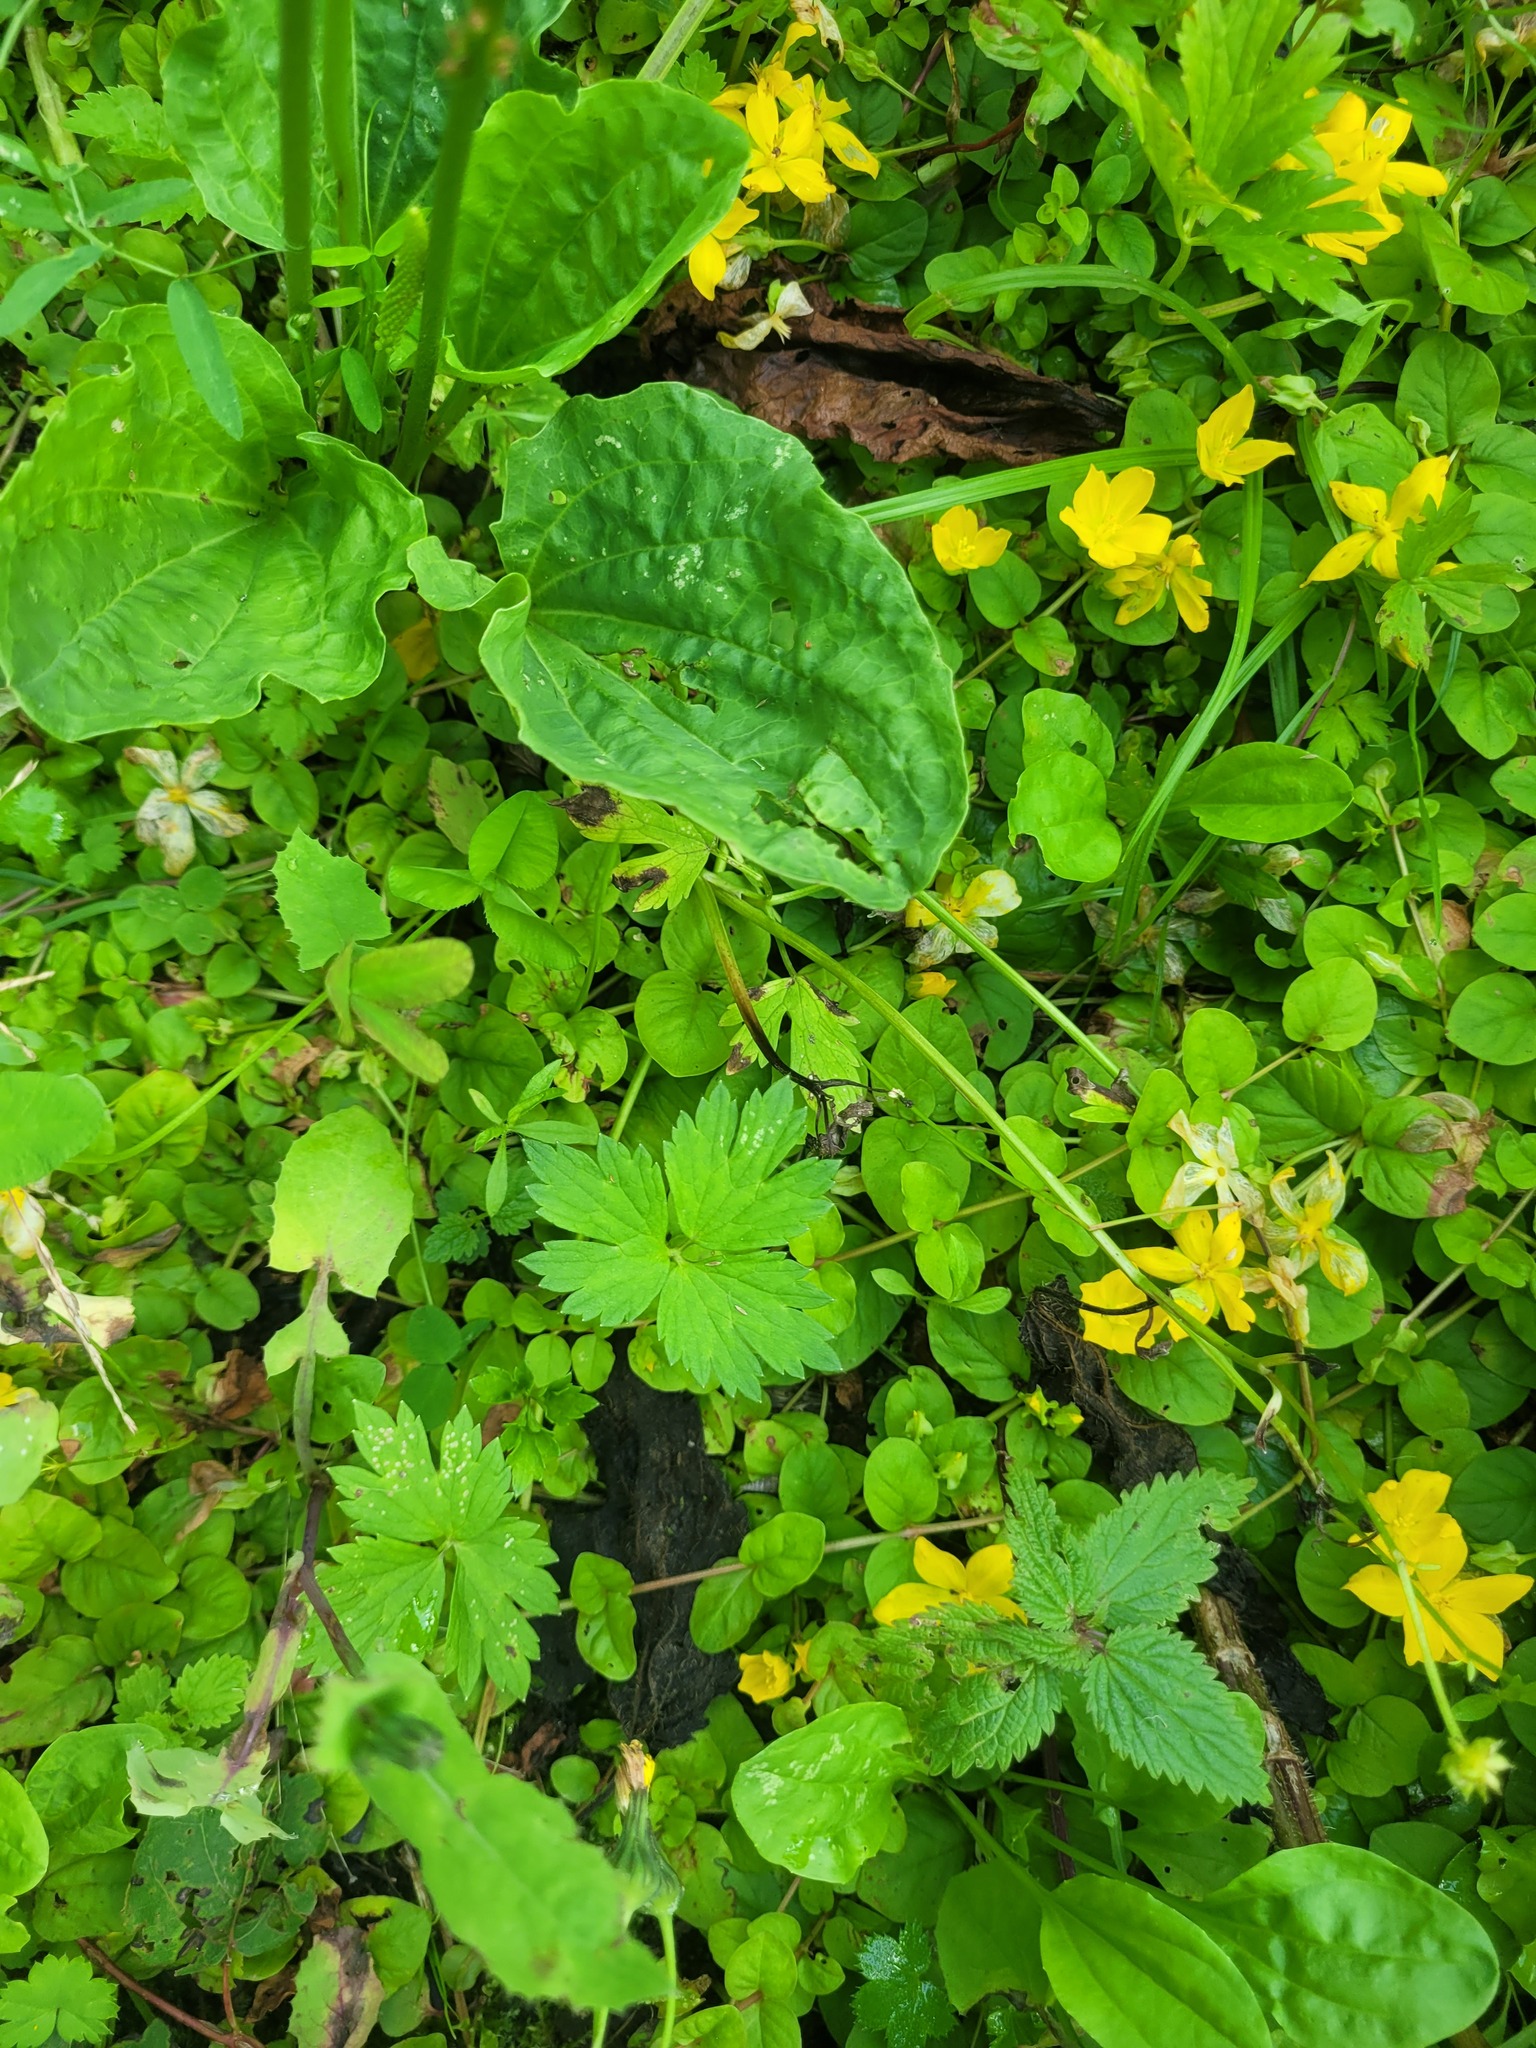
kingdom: Plantae
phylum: Tracheophyta
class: Magnoliopsida
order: Ericales
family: Primulaceae
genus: Lysimachia
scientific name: Lysimachia nummularia
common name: Moneywort
